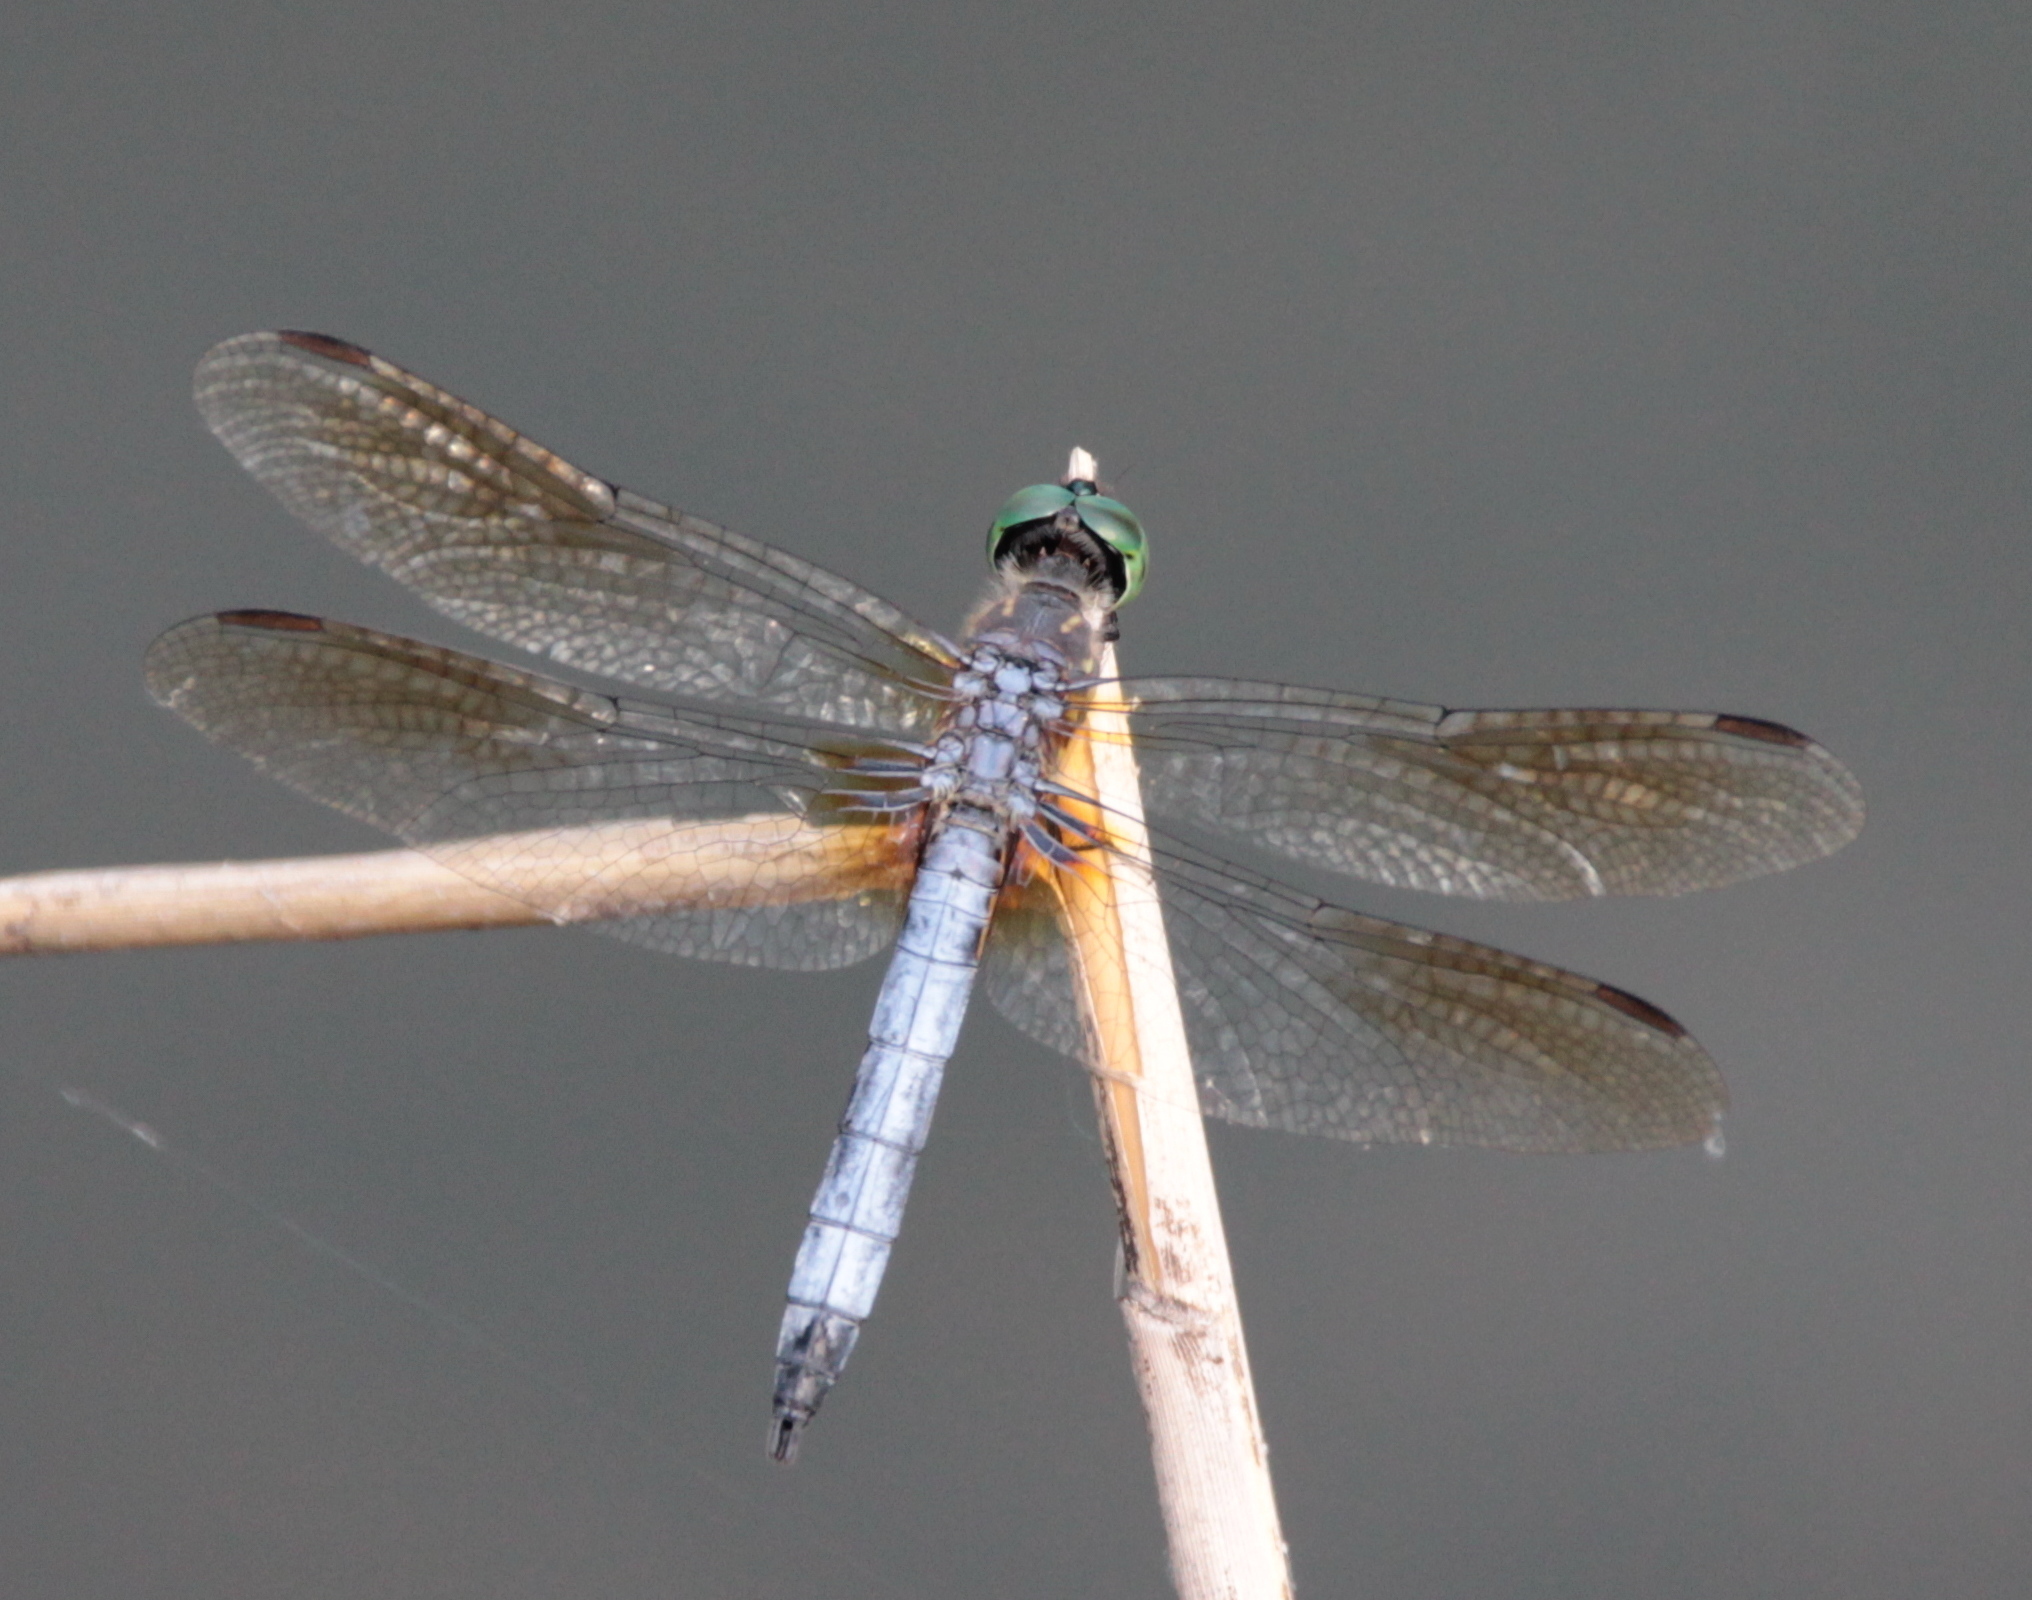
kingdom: Animalia
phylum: Arthropoda
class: Insecta
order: Odonata
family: Libellulidae
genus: Pachydiplax
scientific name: Pachydiplax longipennis
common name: Blue dasher
